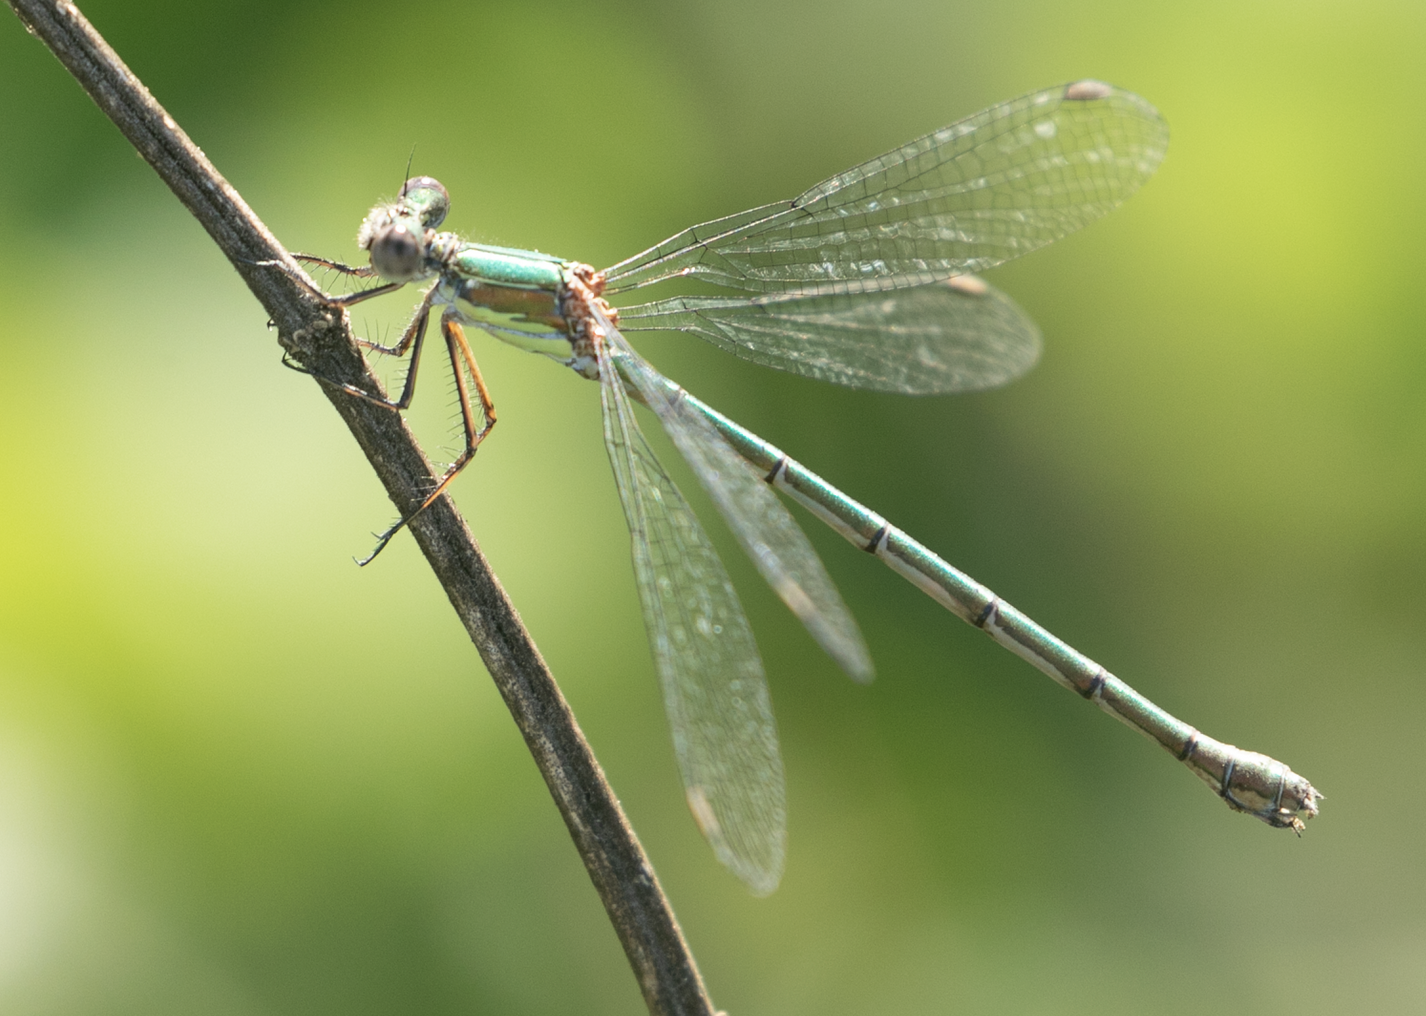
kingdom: Animalia
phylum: Arthropoda
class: Insecta
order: Odonata
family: Lestidae
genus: Chalcolestes
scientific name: Chalcolestes viridis
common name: Green emerald damselfly
